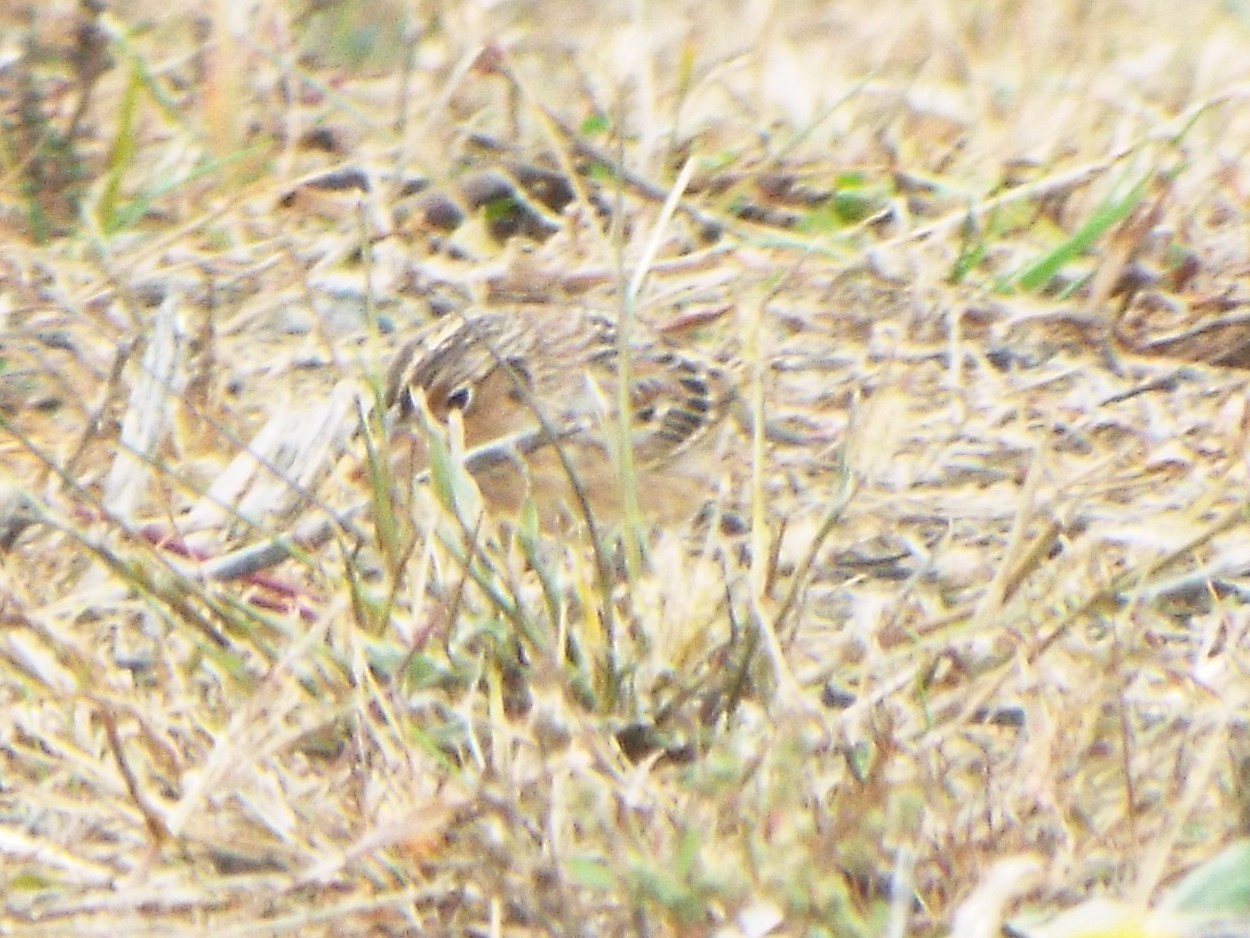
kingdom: Animalia
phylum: Chordata
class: Aves
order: Passeriformes
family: Passerellidae
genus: Ammodramus
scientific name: Ammodramus savannarum
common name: Grasshopper sparrow
